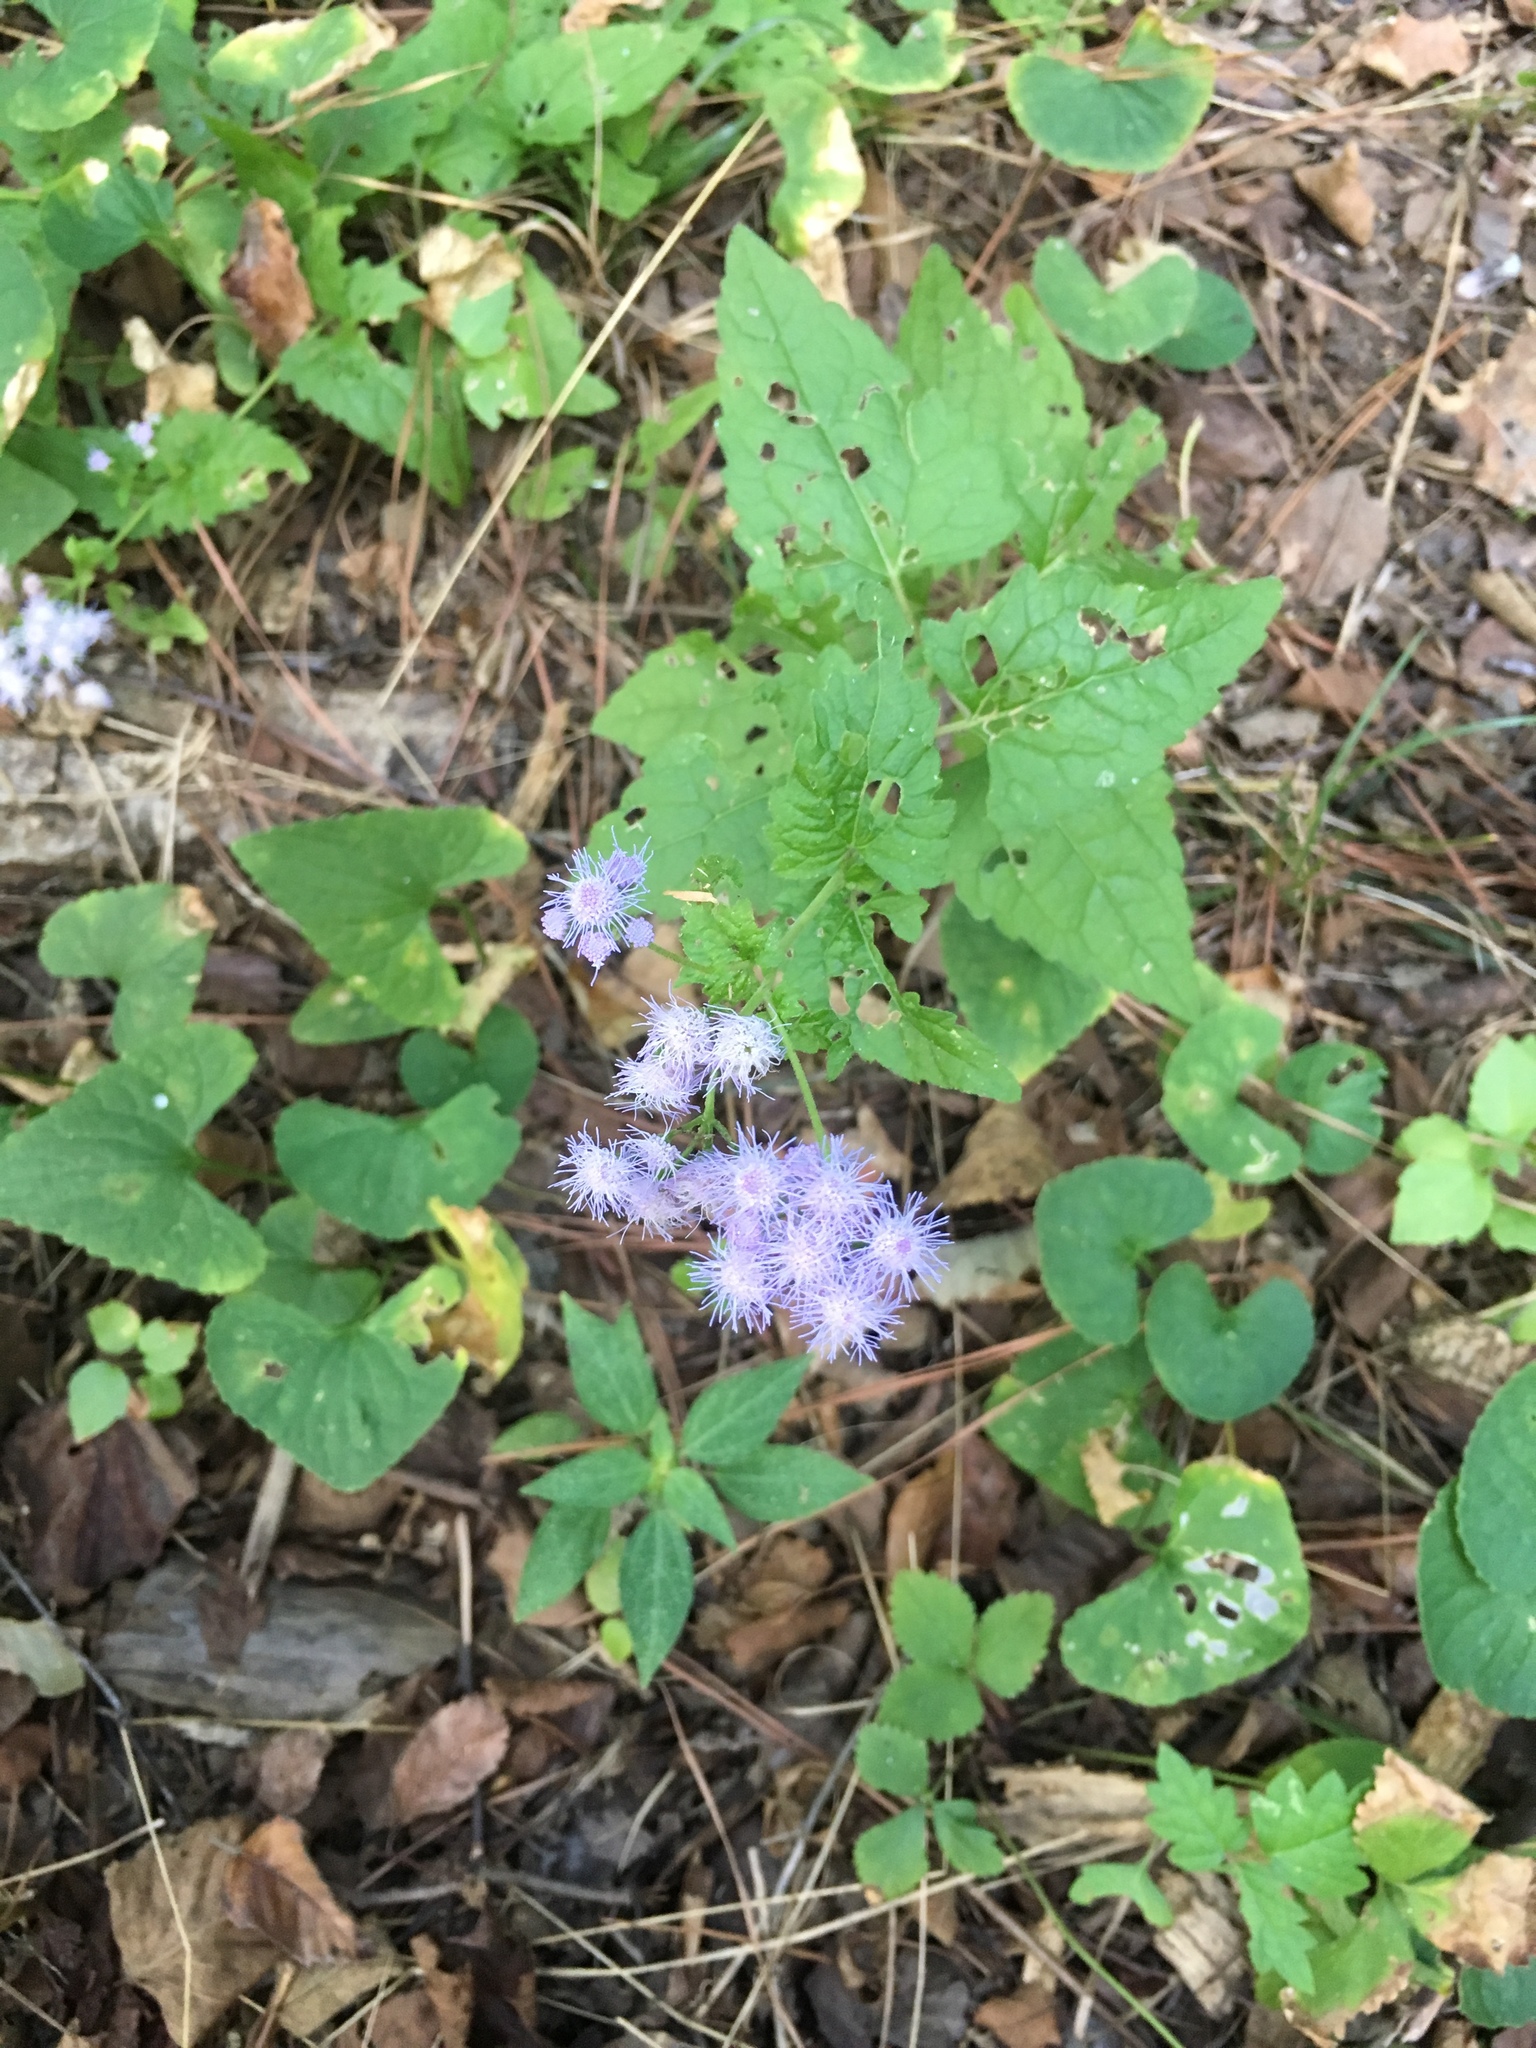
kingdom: Plantae
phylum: Tracheophyta
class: Magnoliopsida
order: Asterales
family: Asteraceae
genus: Conoclinium
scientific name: Conoclinium coelestinum
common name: Blue mistflower
